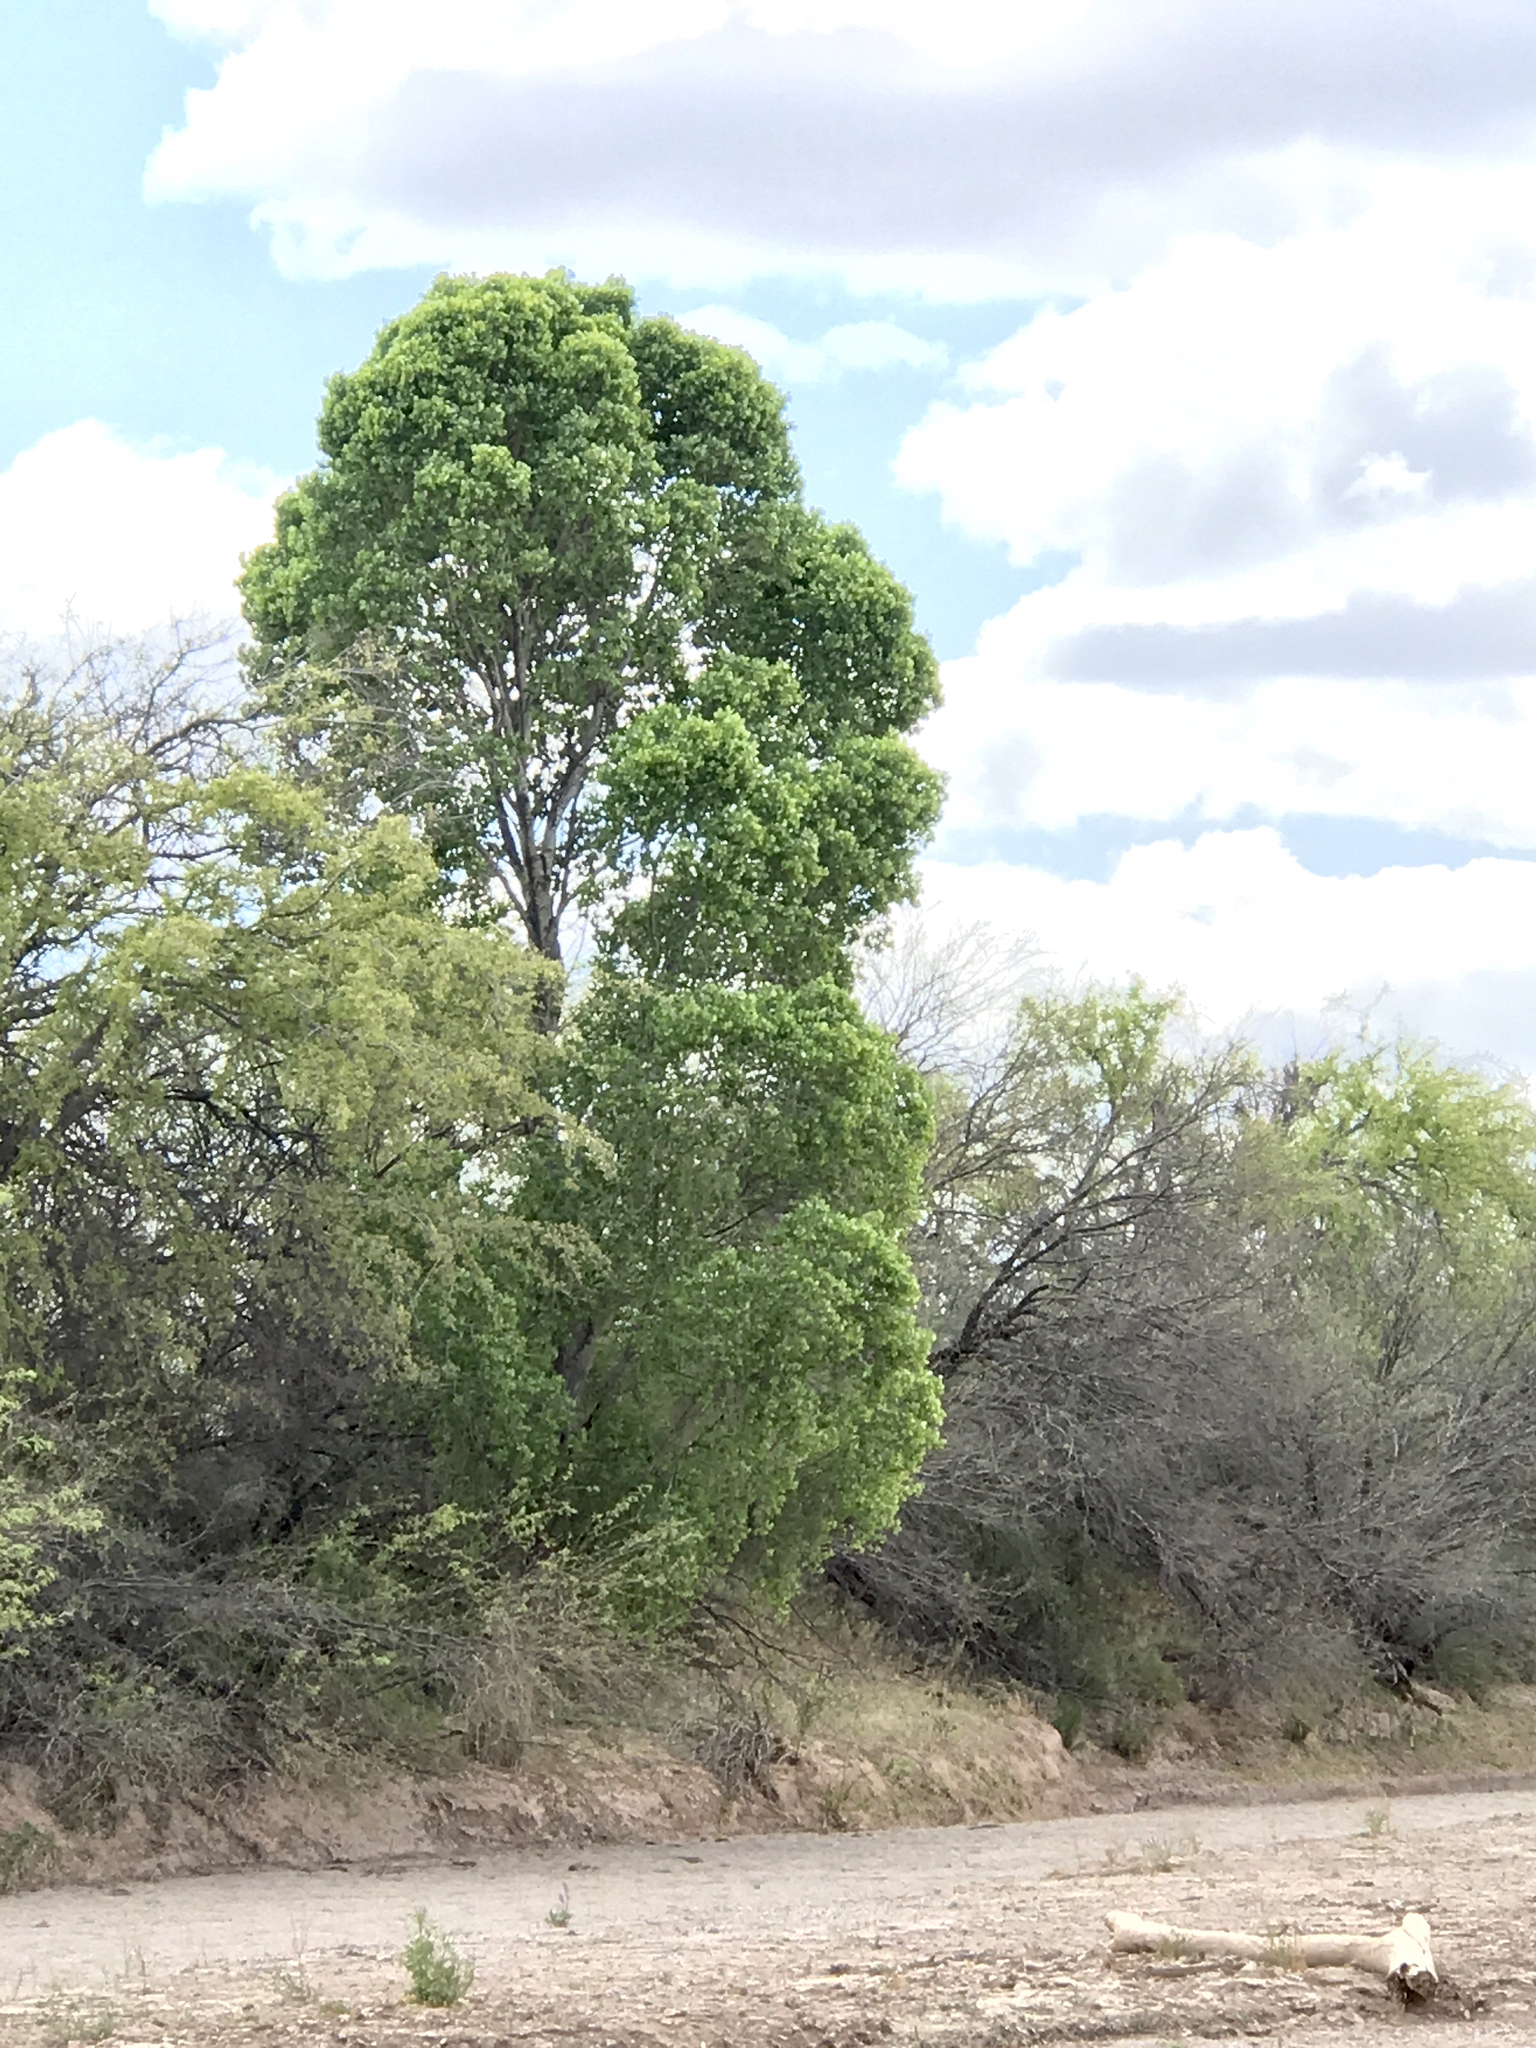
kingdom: Plantae
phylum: Tracheophyta
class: Magnoliopsida
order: Malpighiales
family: Salicaceae
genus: Populus
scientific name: Populus fremontii
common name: Fremont's cottonwood
